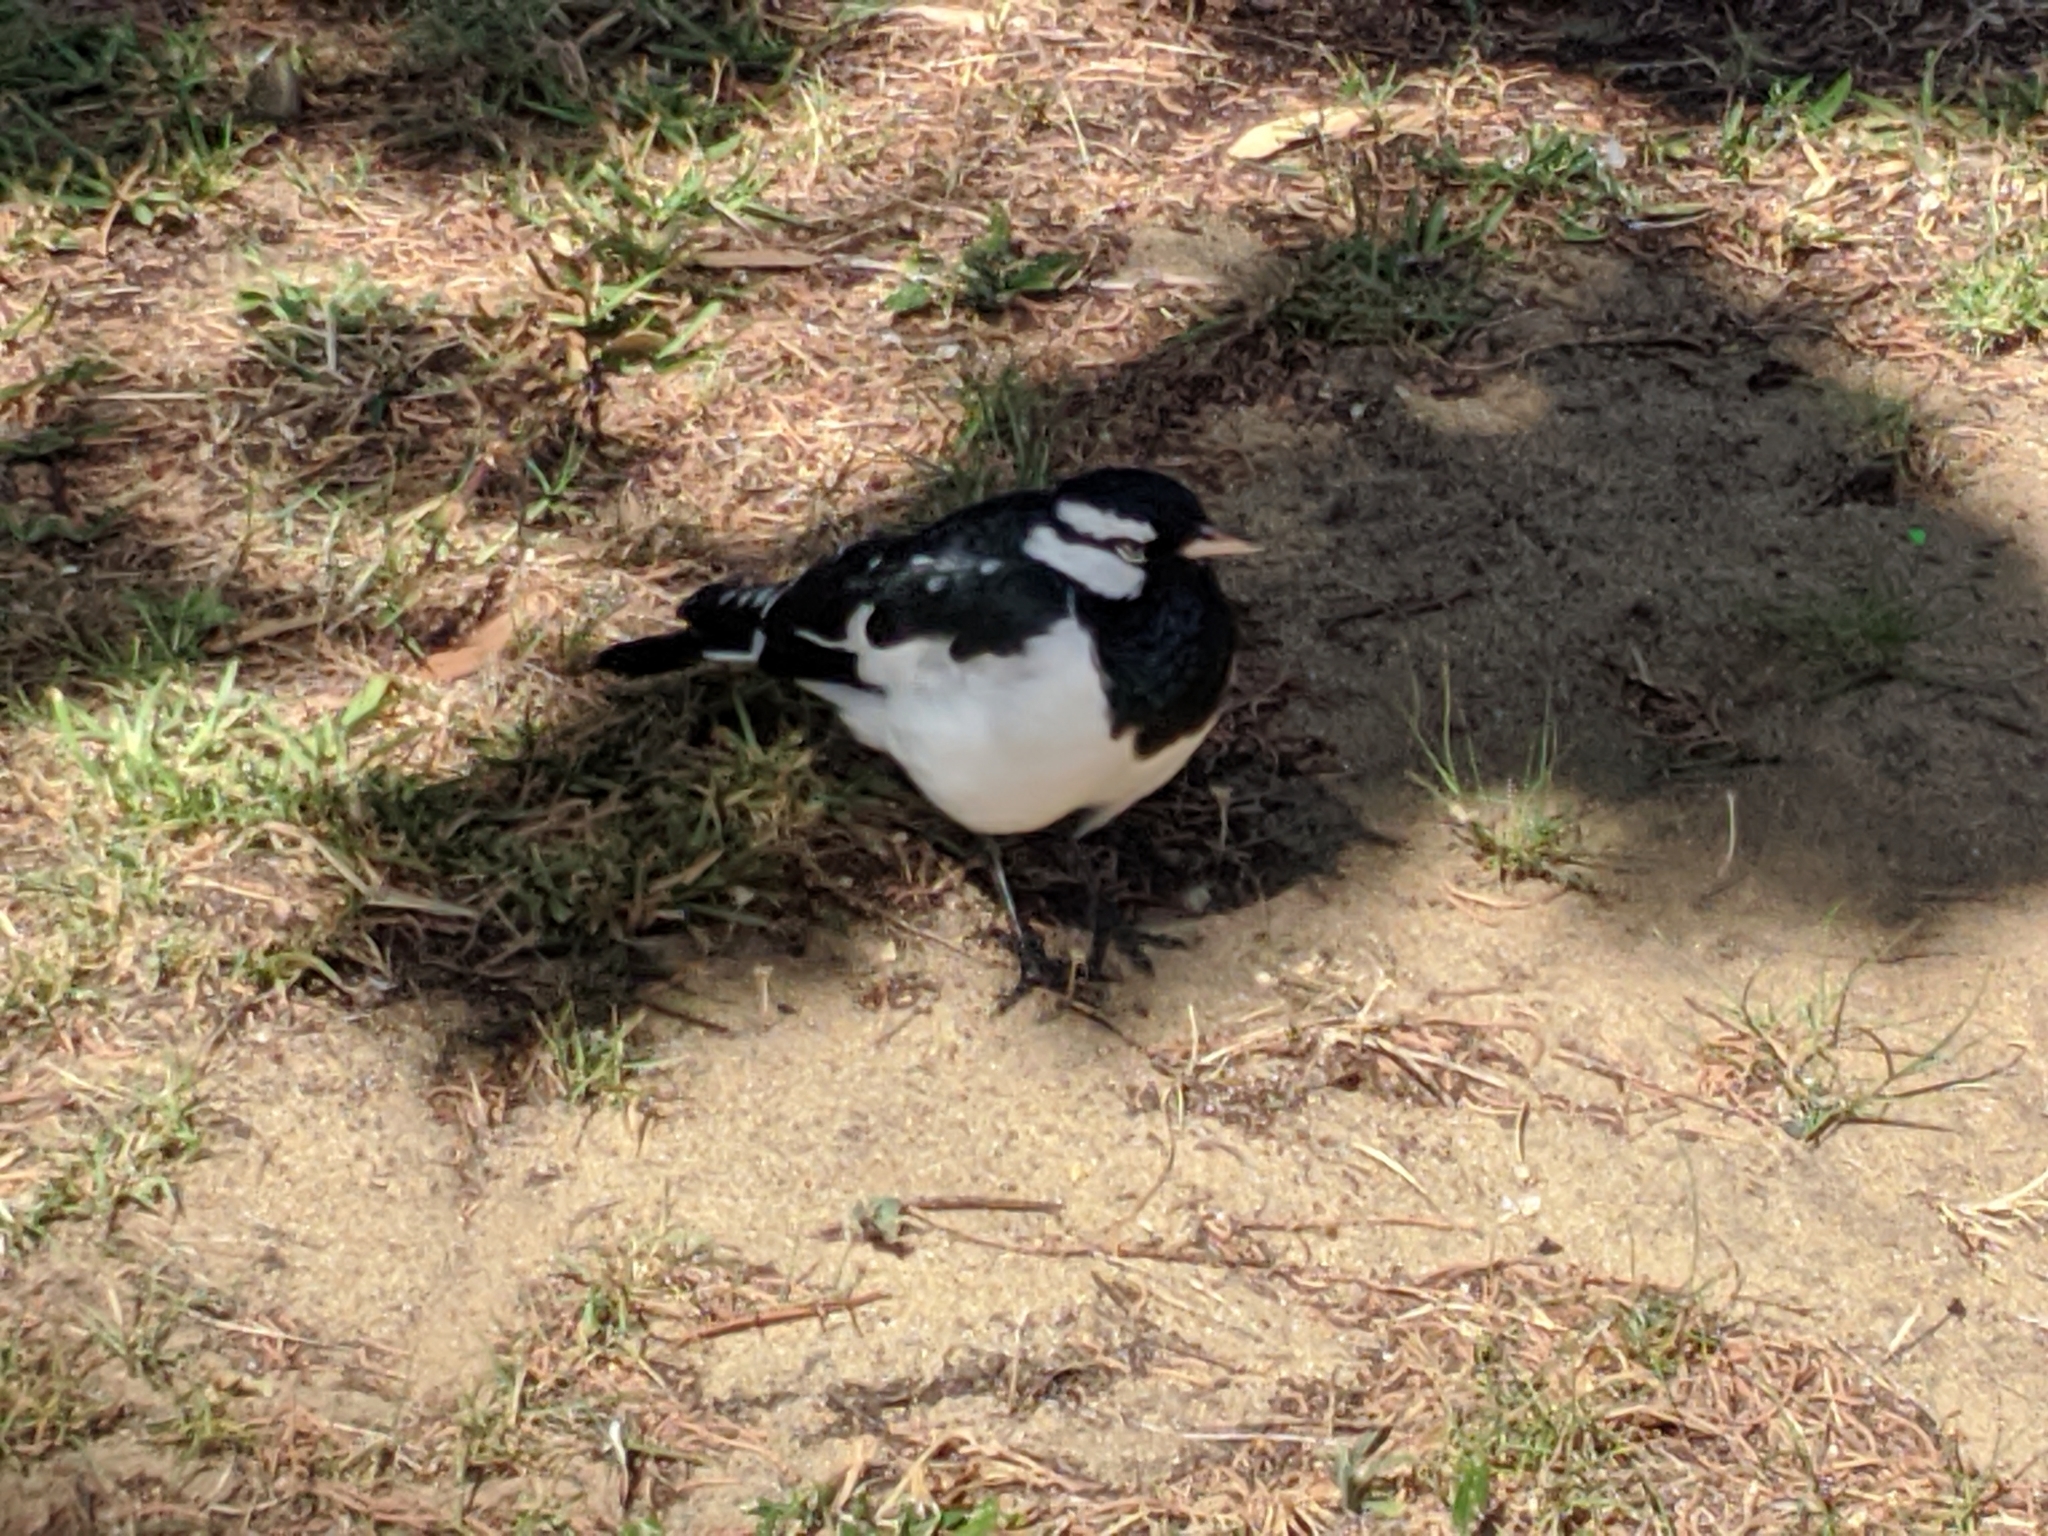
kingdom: Animalia
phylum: Chordata
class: Aves
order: Passeriformes
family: Monarchidae
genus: Grallina
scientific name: Grallina cyanoleuca
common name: Magpie-lark
